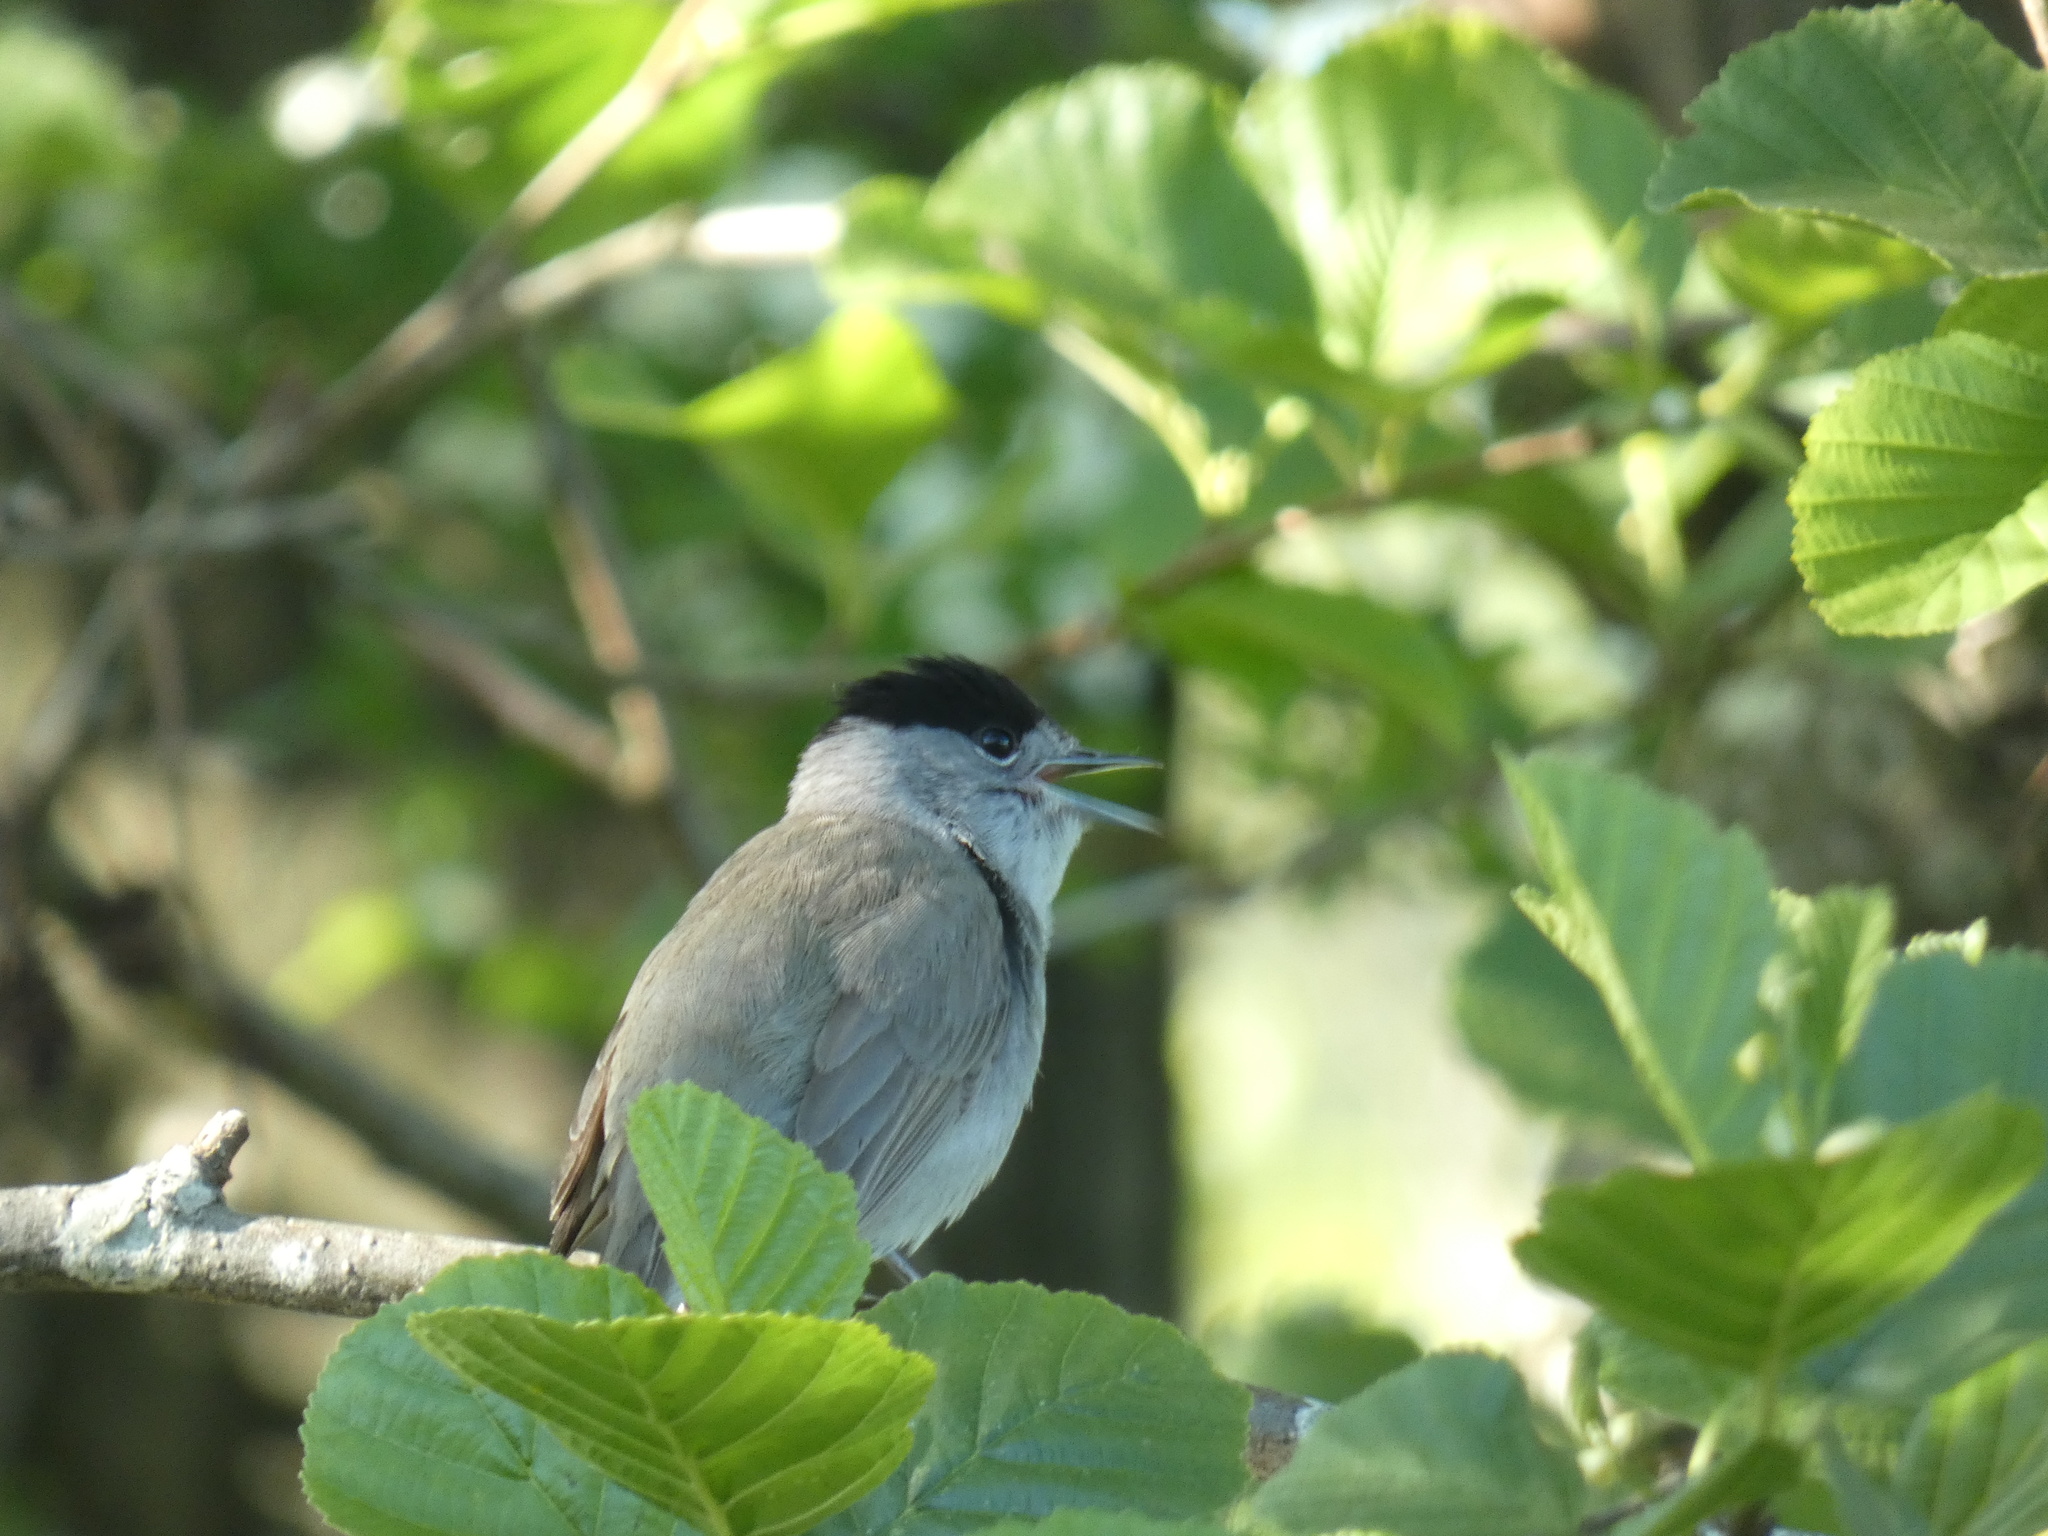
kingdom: Animalia
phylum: Chordata
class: Aves
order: Passeriformes
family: Sylviidae
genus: Sylvia
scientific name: Sylvia atricapilla
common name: Eurasian blackcap
